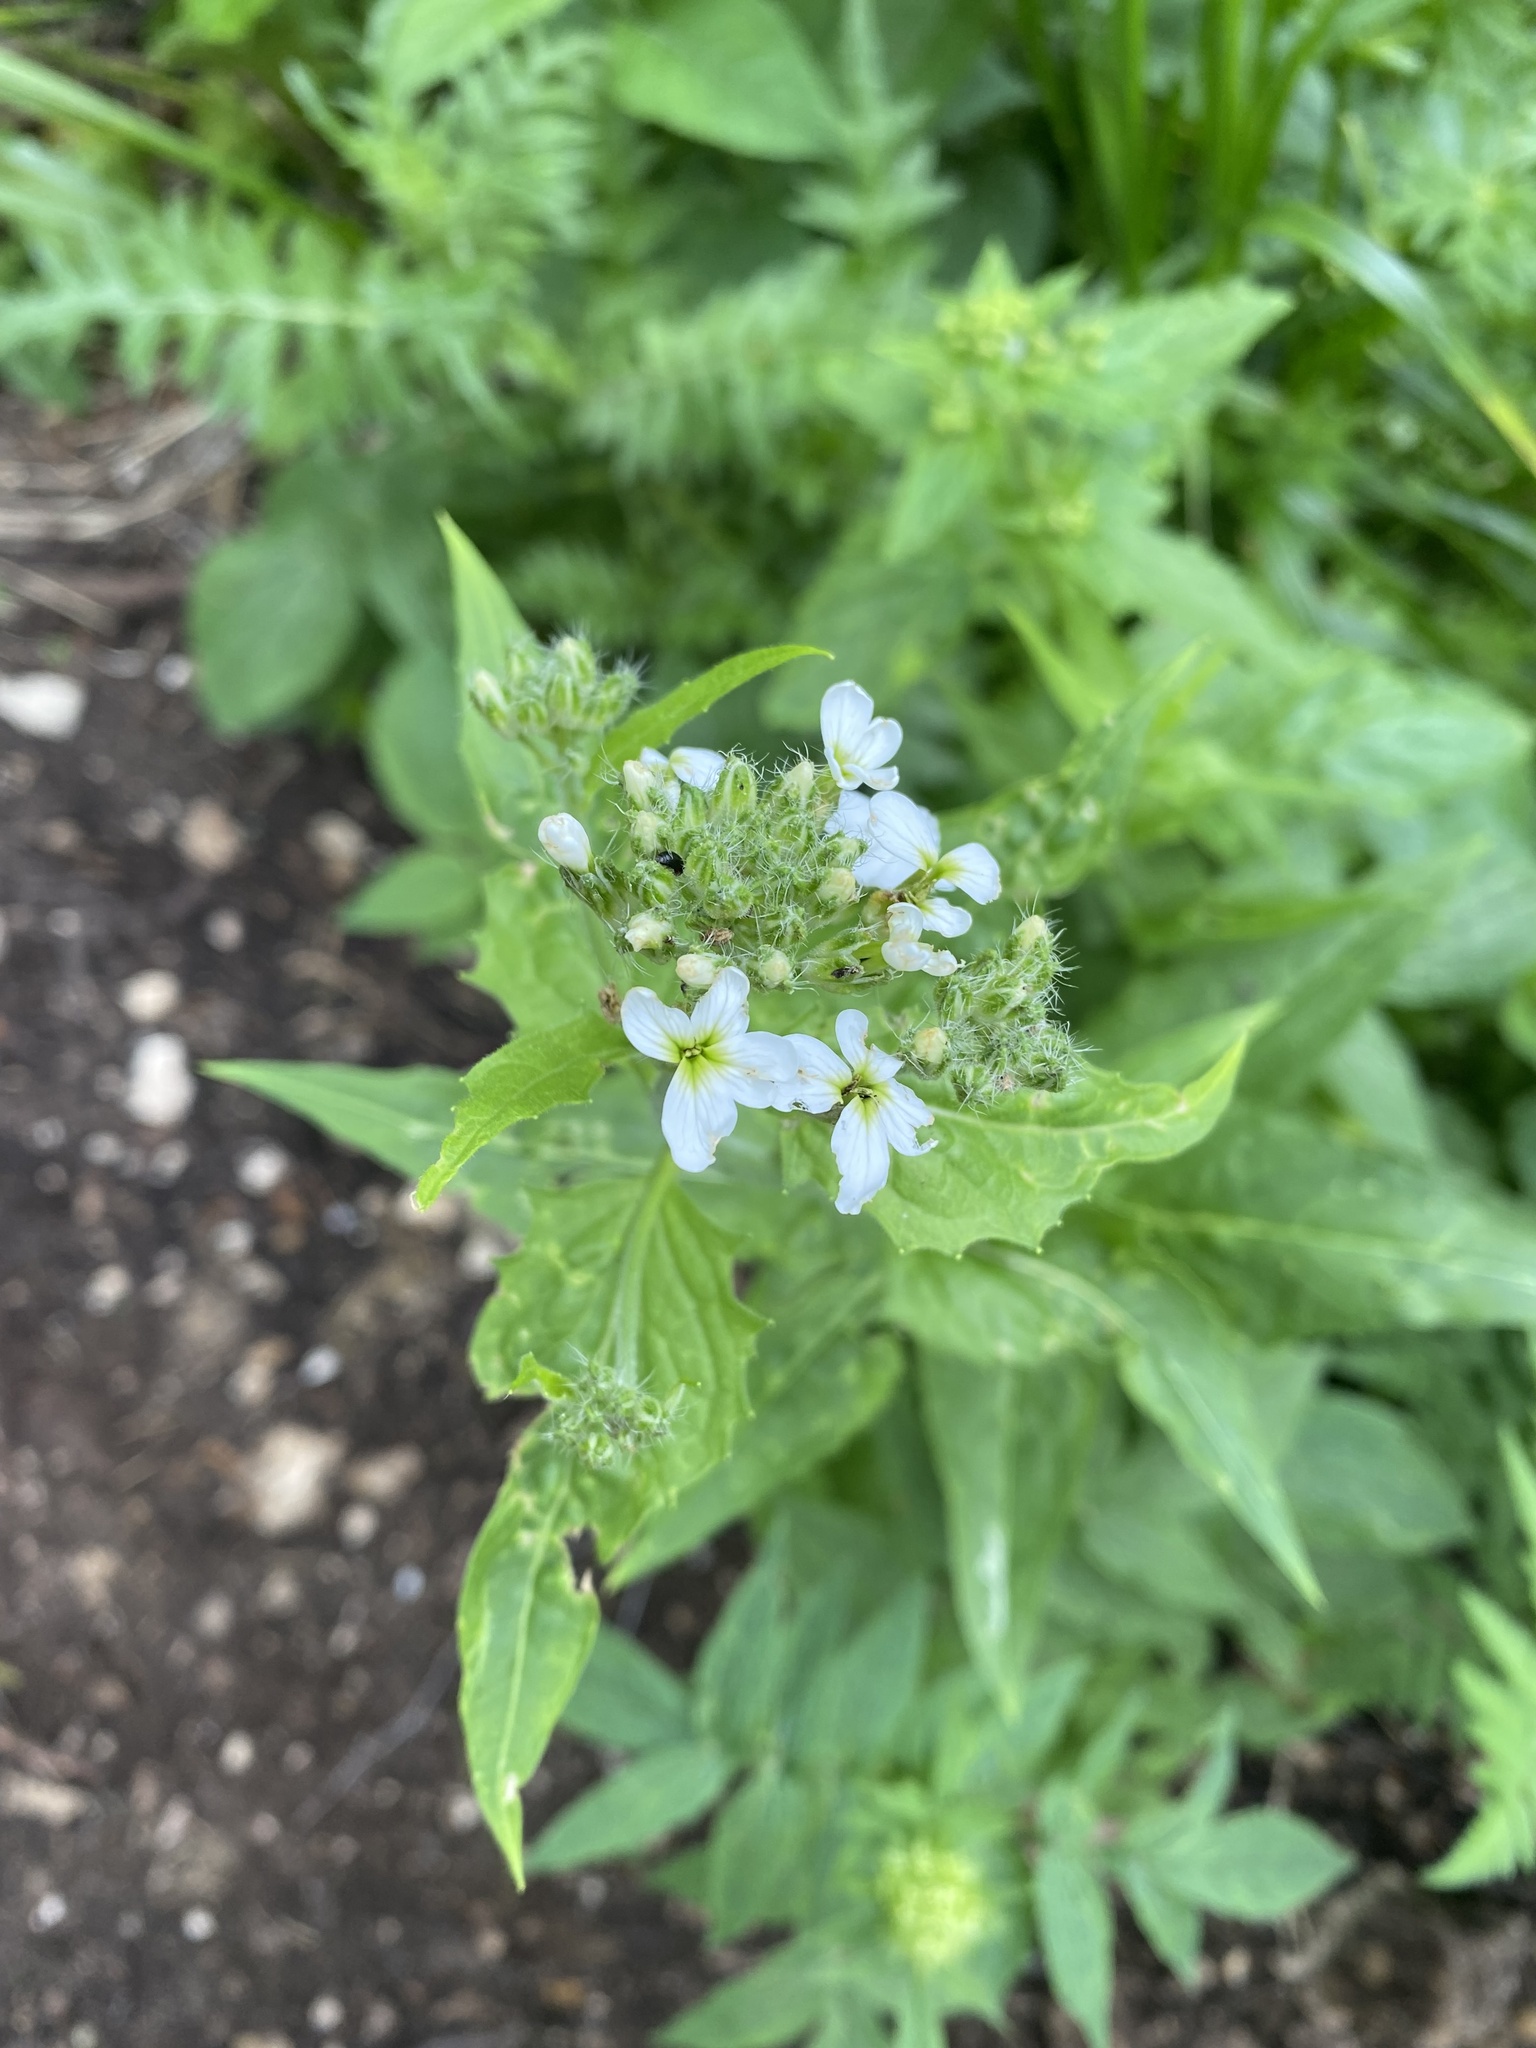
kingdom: Plantae
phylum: Tracheophyta
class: Magnoliopsida
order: Brassicales
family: Brassicaceae
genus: Hesperis
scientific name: Hesperis matronalis
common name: Dame's-violet
